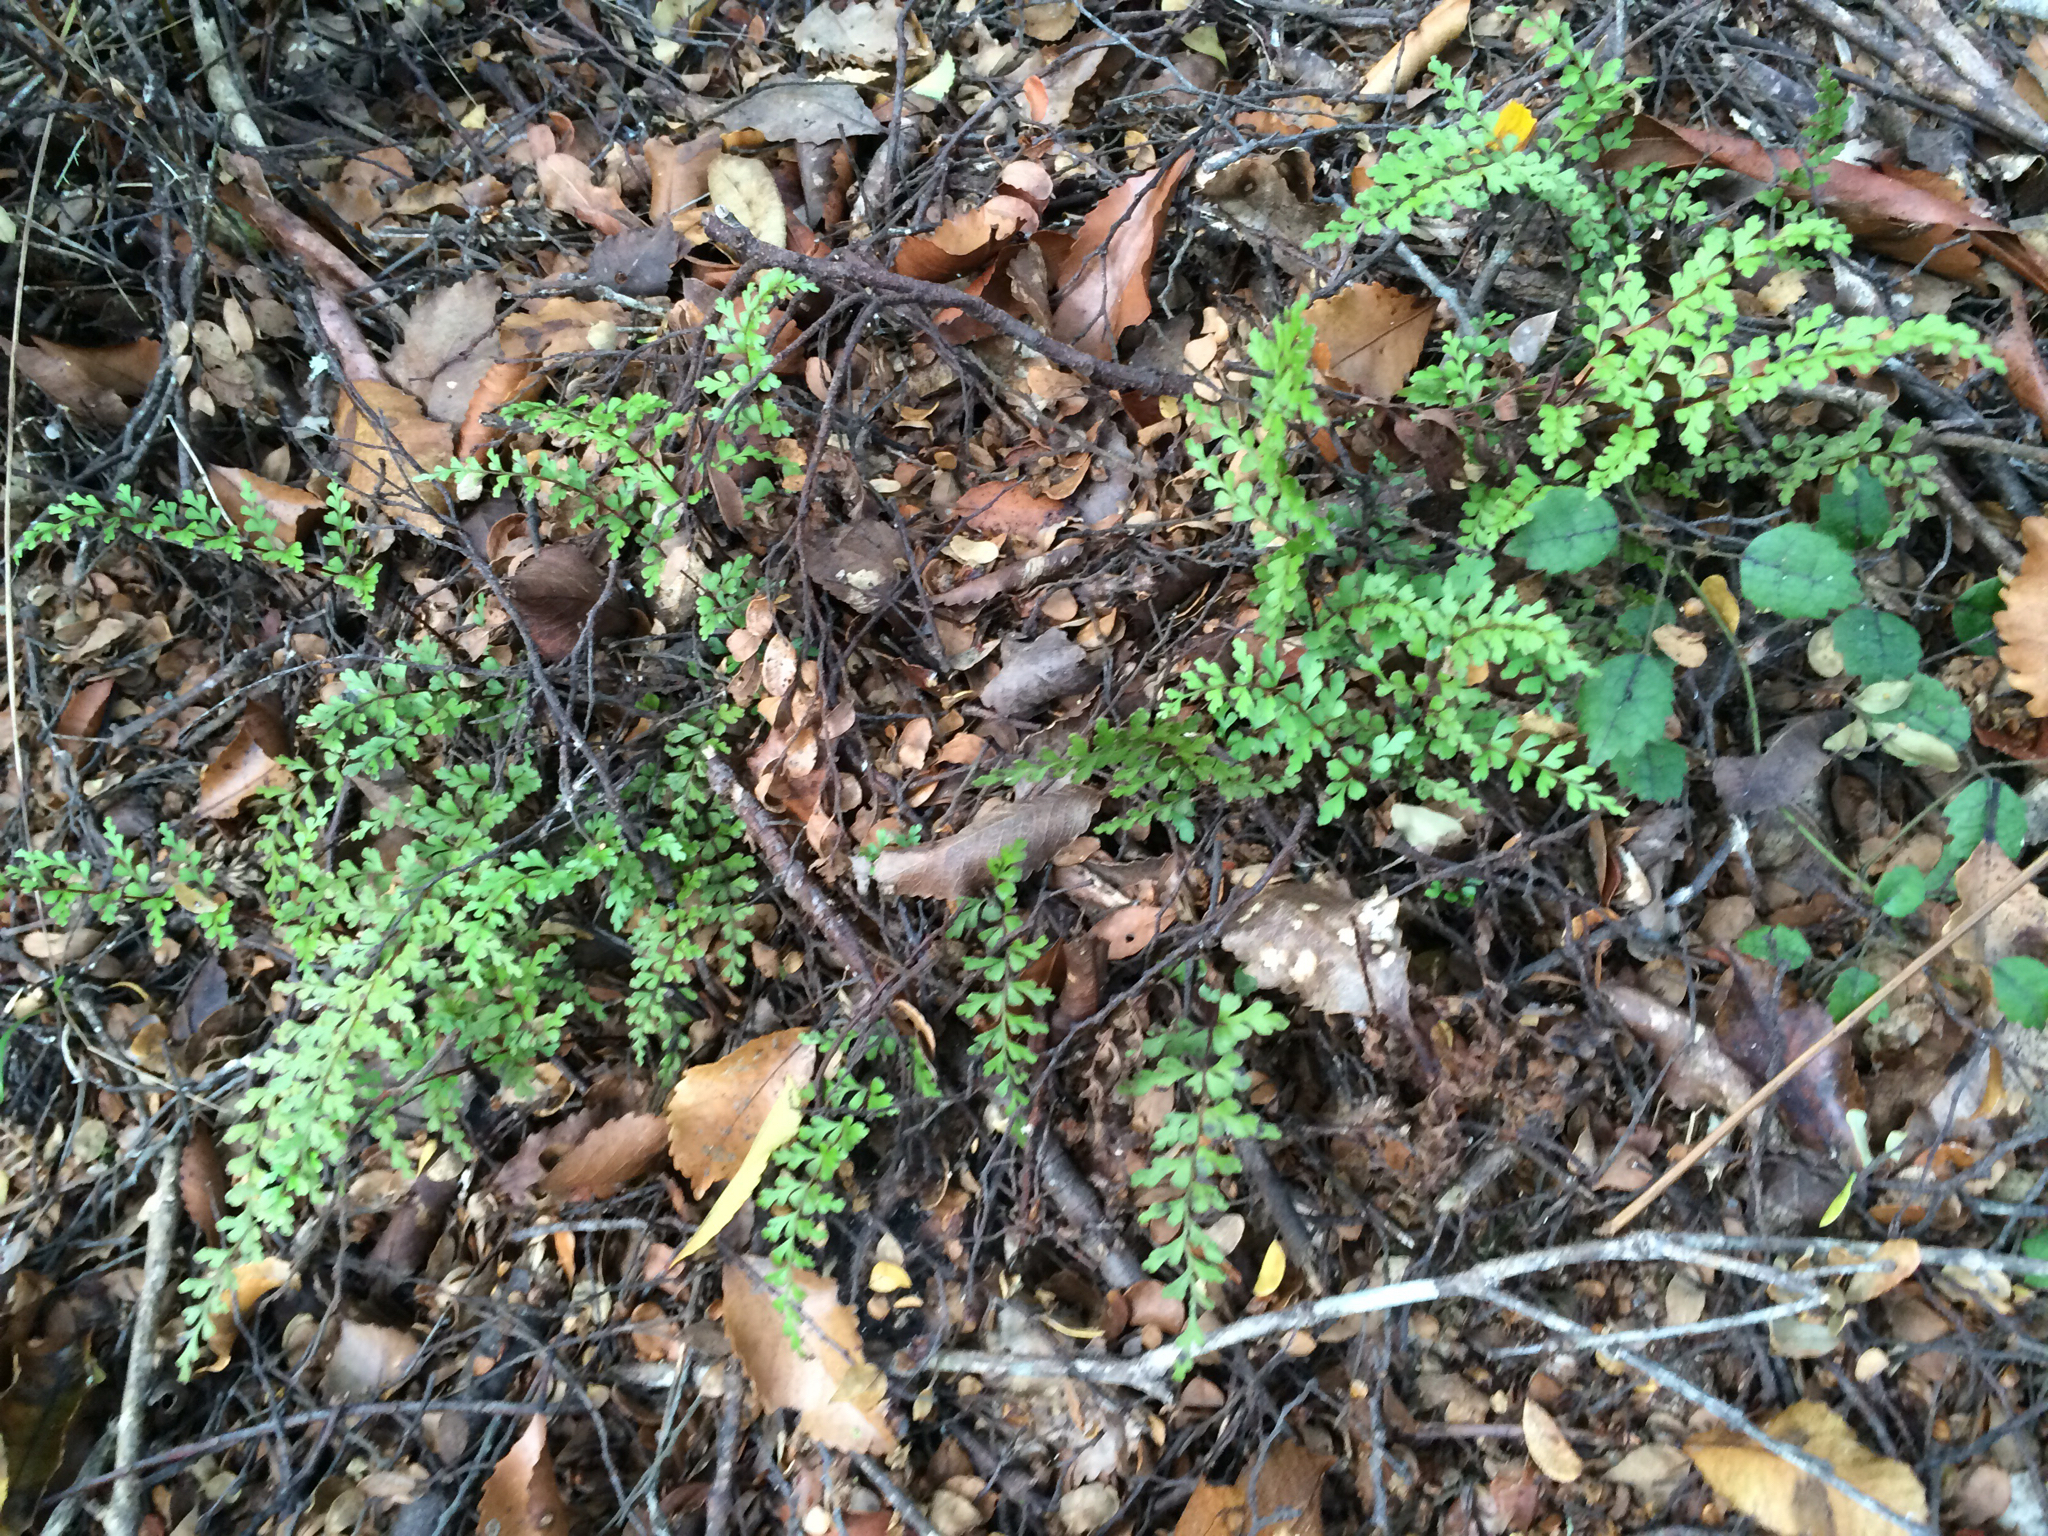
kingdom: Plantae
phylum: Tracheophyta
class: Polypodiopsida
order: Polypodiales
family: Lindsaeaceae
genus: Lindsaea
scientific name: Lindsaea trichomanoides
